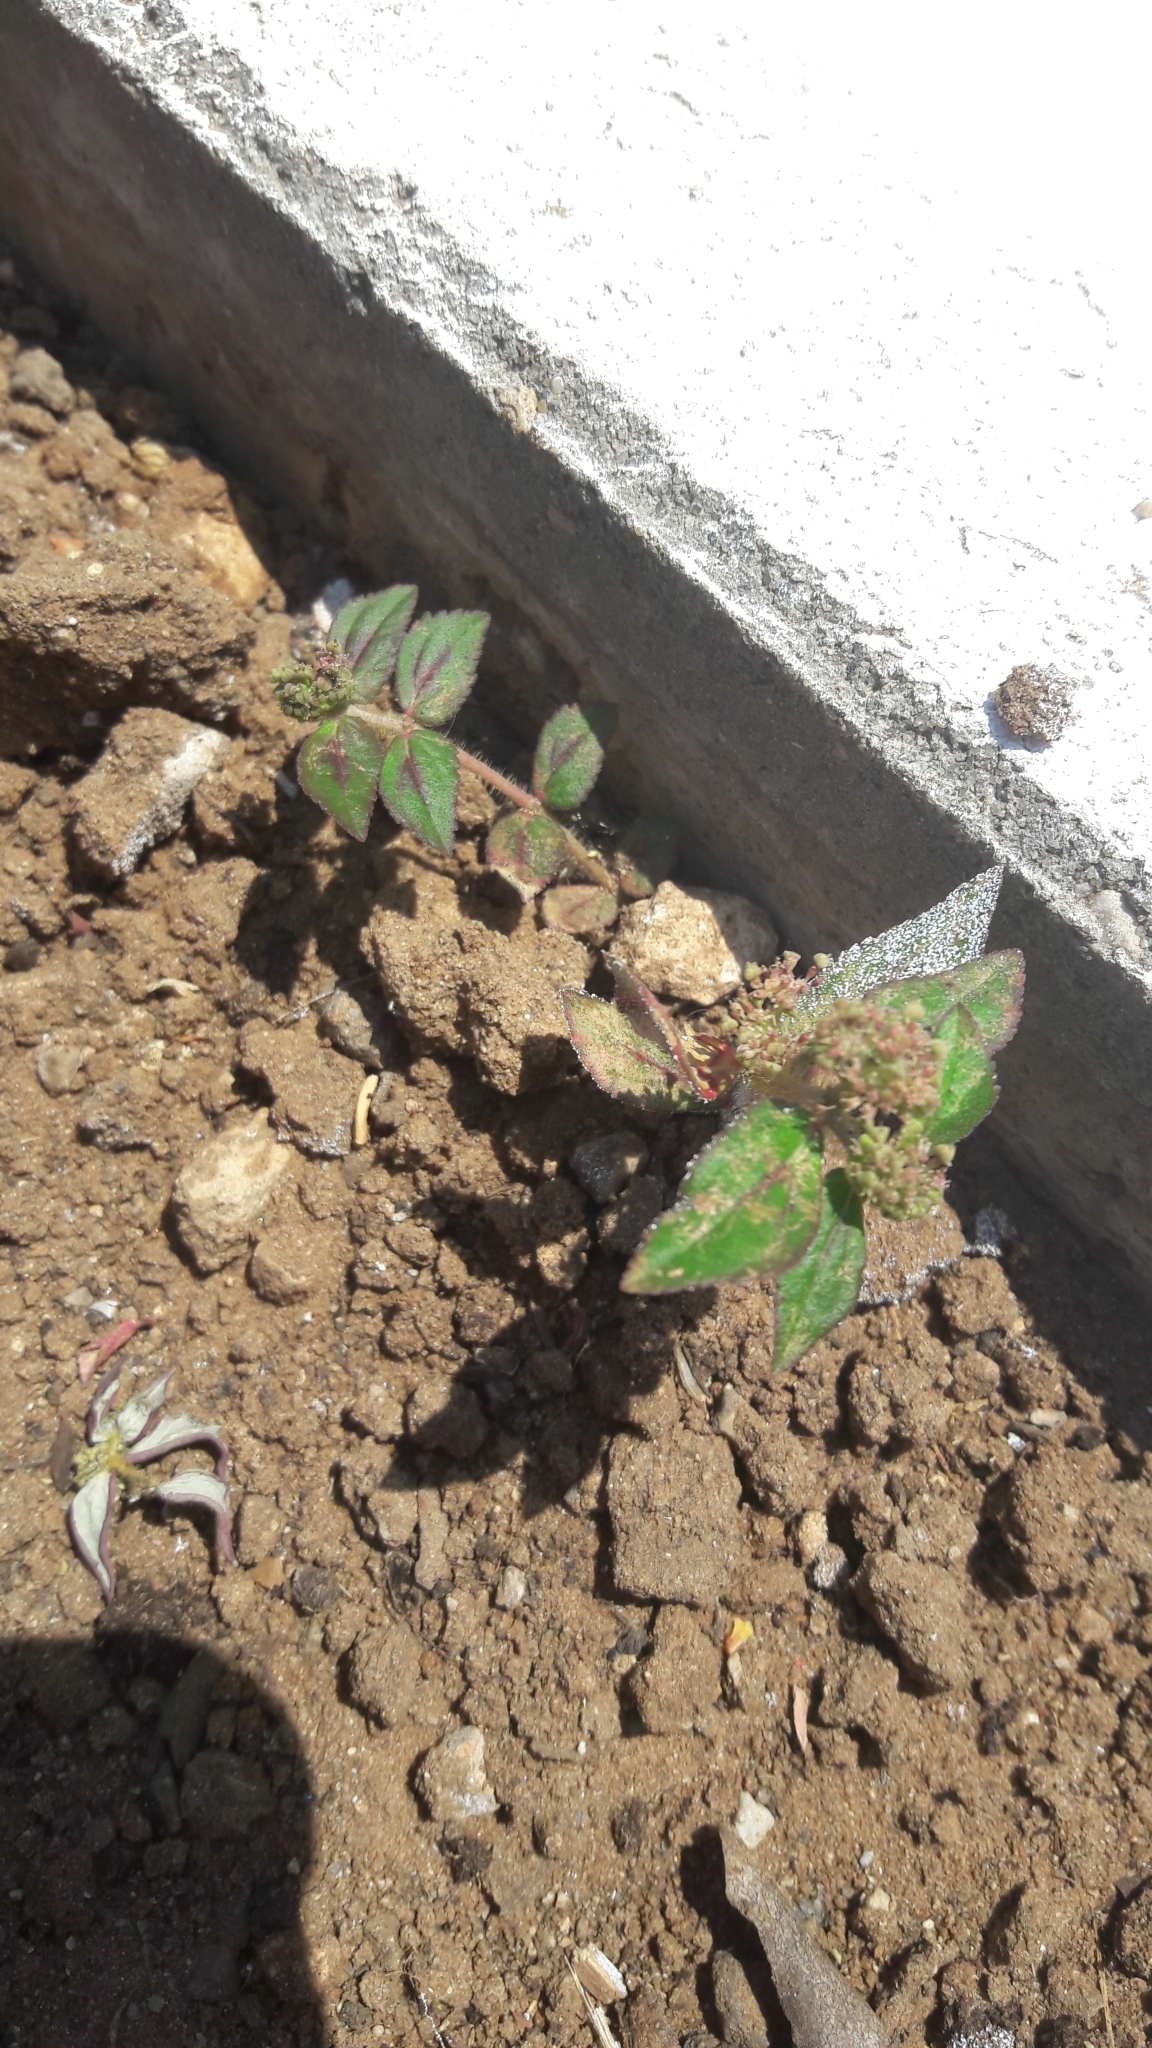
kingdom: Plantae
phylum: Tracheophyta
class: Magnoliopsida
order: Malpighiales
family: Euphorbiaceae
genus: Euphorbia
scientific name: Euphorbia hirta
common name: Pillpod sandmat
